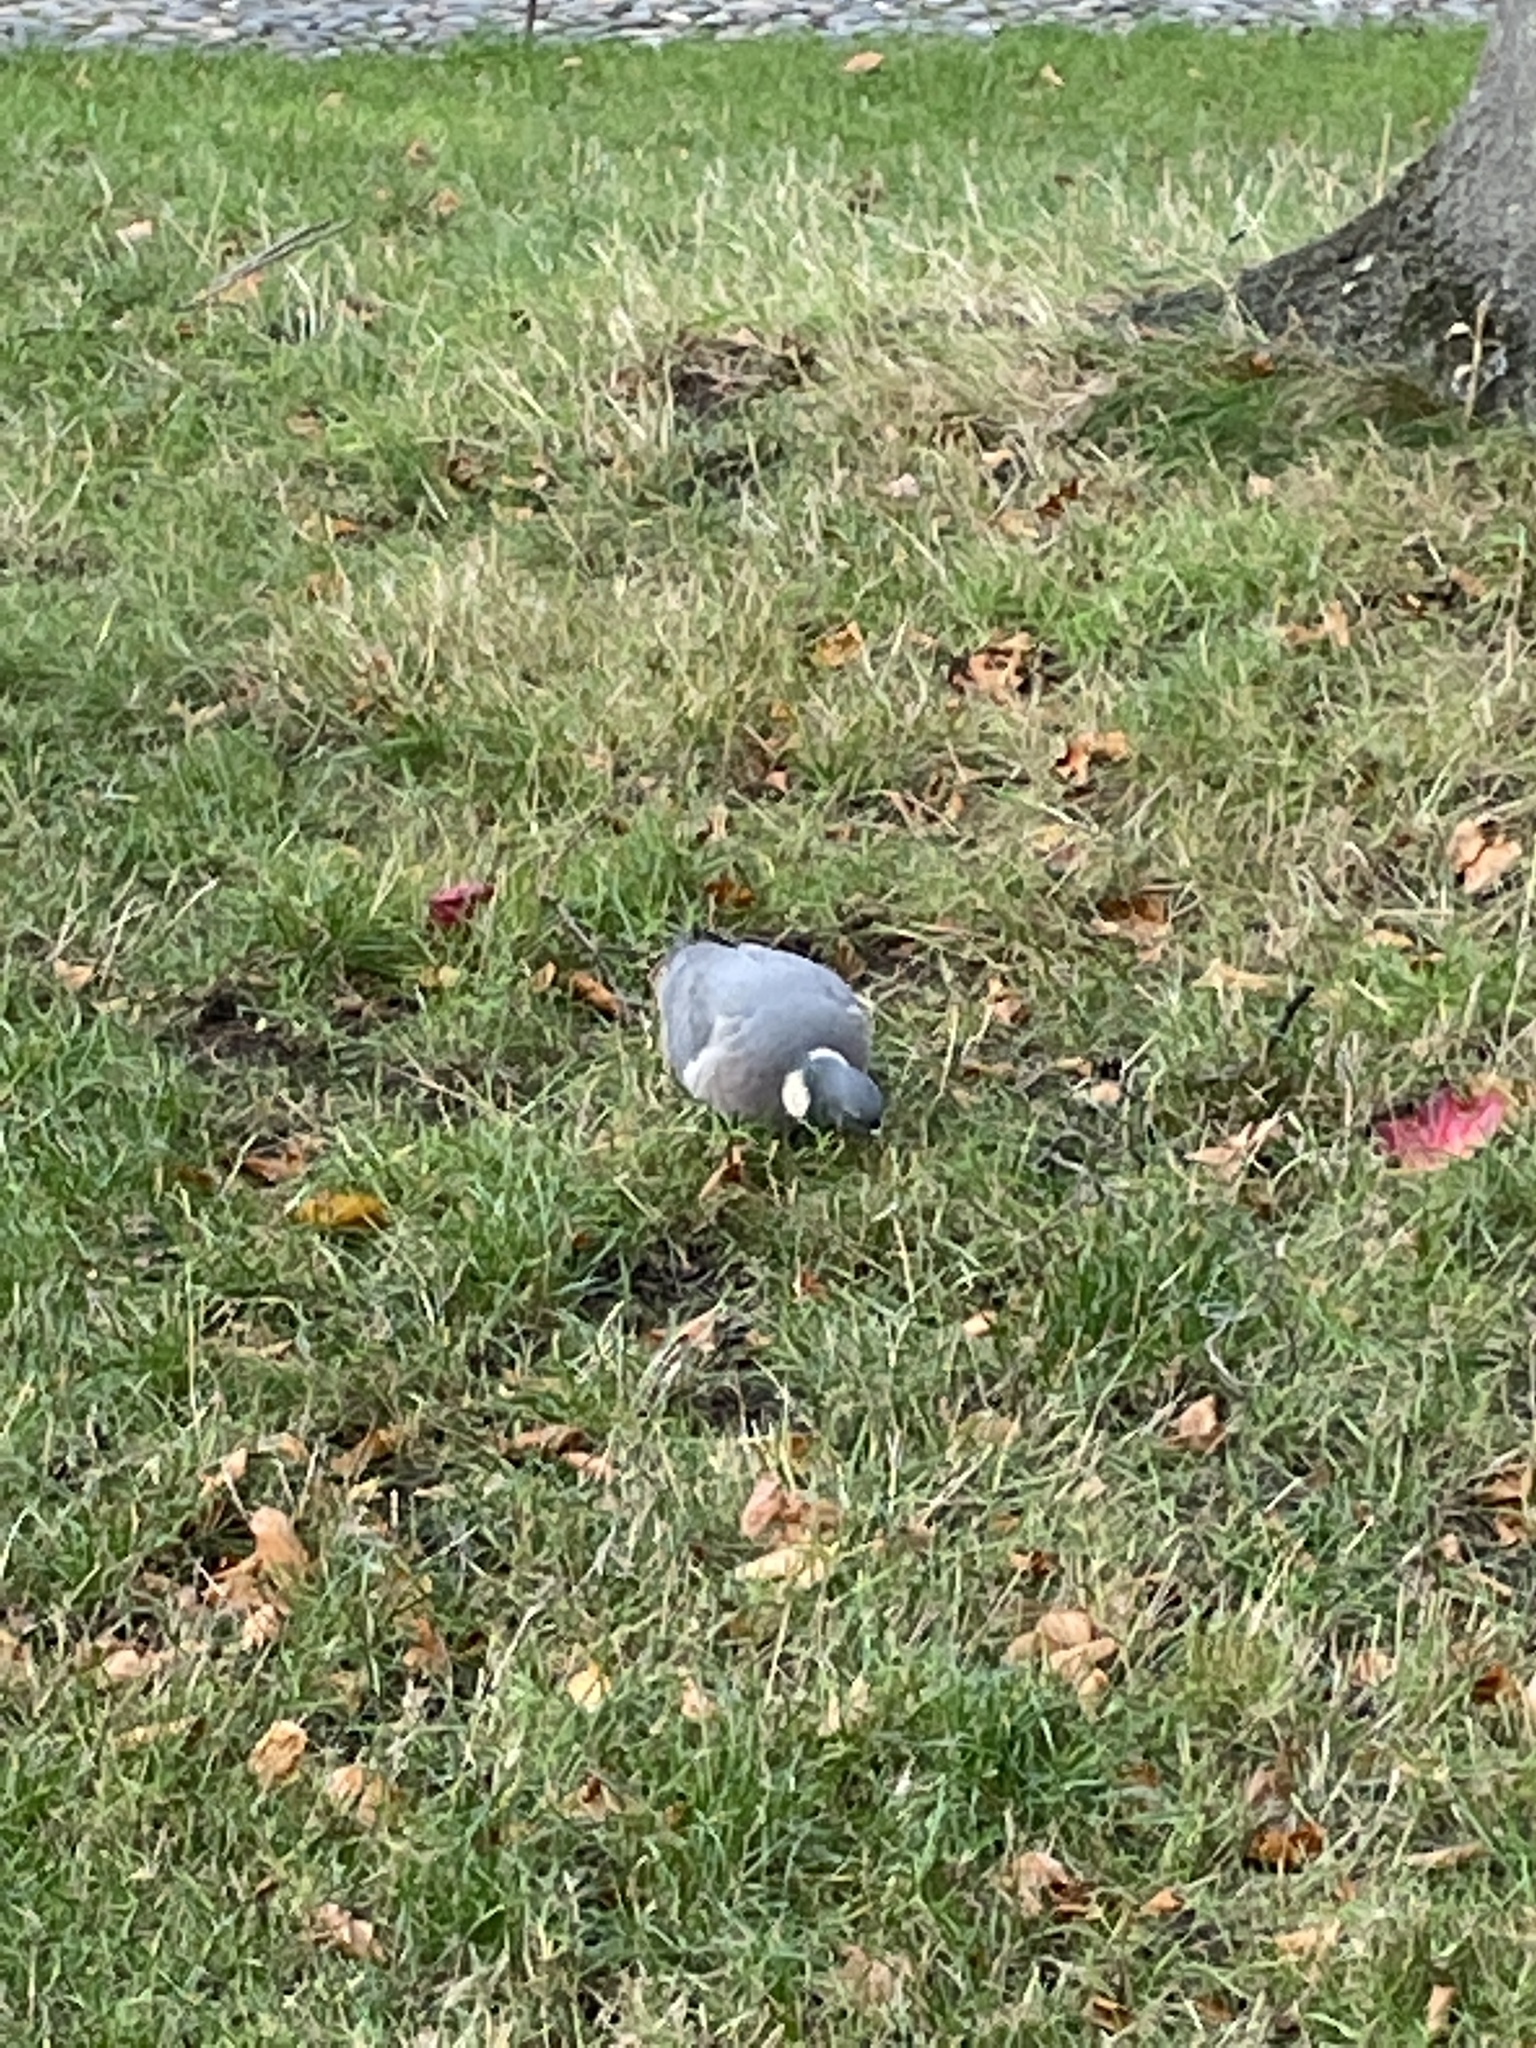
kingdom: Animalia
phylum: Chordata
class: Aves
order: Columbiformes
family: Columbidae
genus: Columba
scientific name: Columba palumbus
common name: Common wood pigeon
